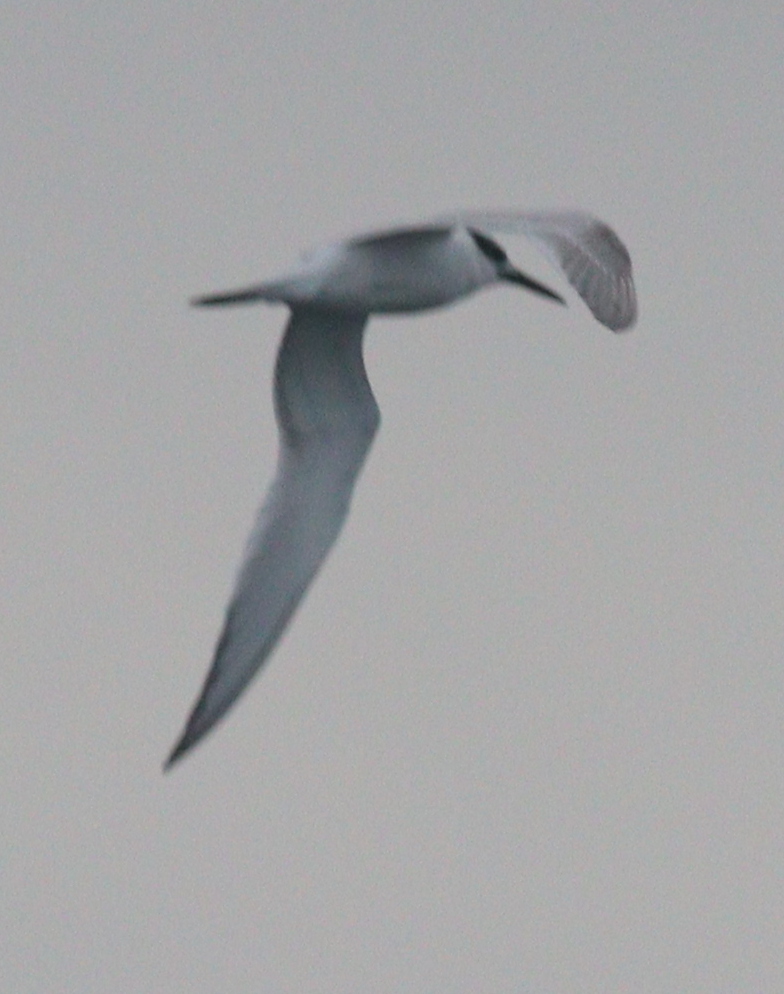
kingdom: Animalia
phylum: Chordata
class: Aves
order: Charadriiformes
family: Laridae
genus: Thalasseus
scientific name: Thalasseus sandvicensis
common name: Sandwich tern
